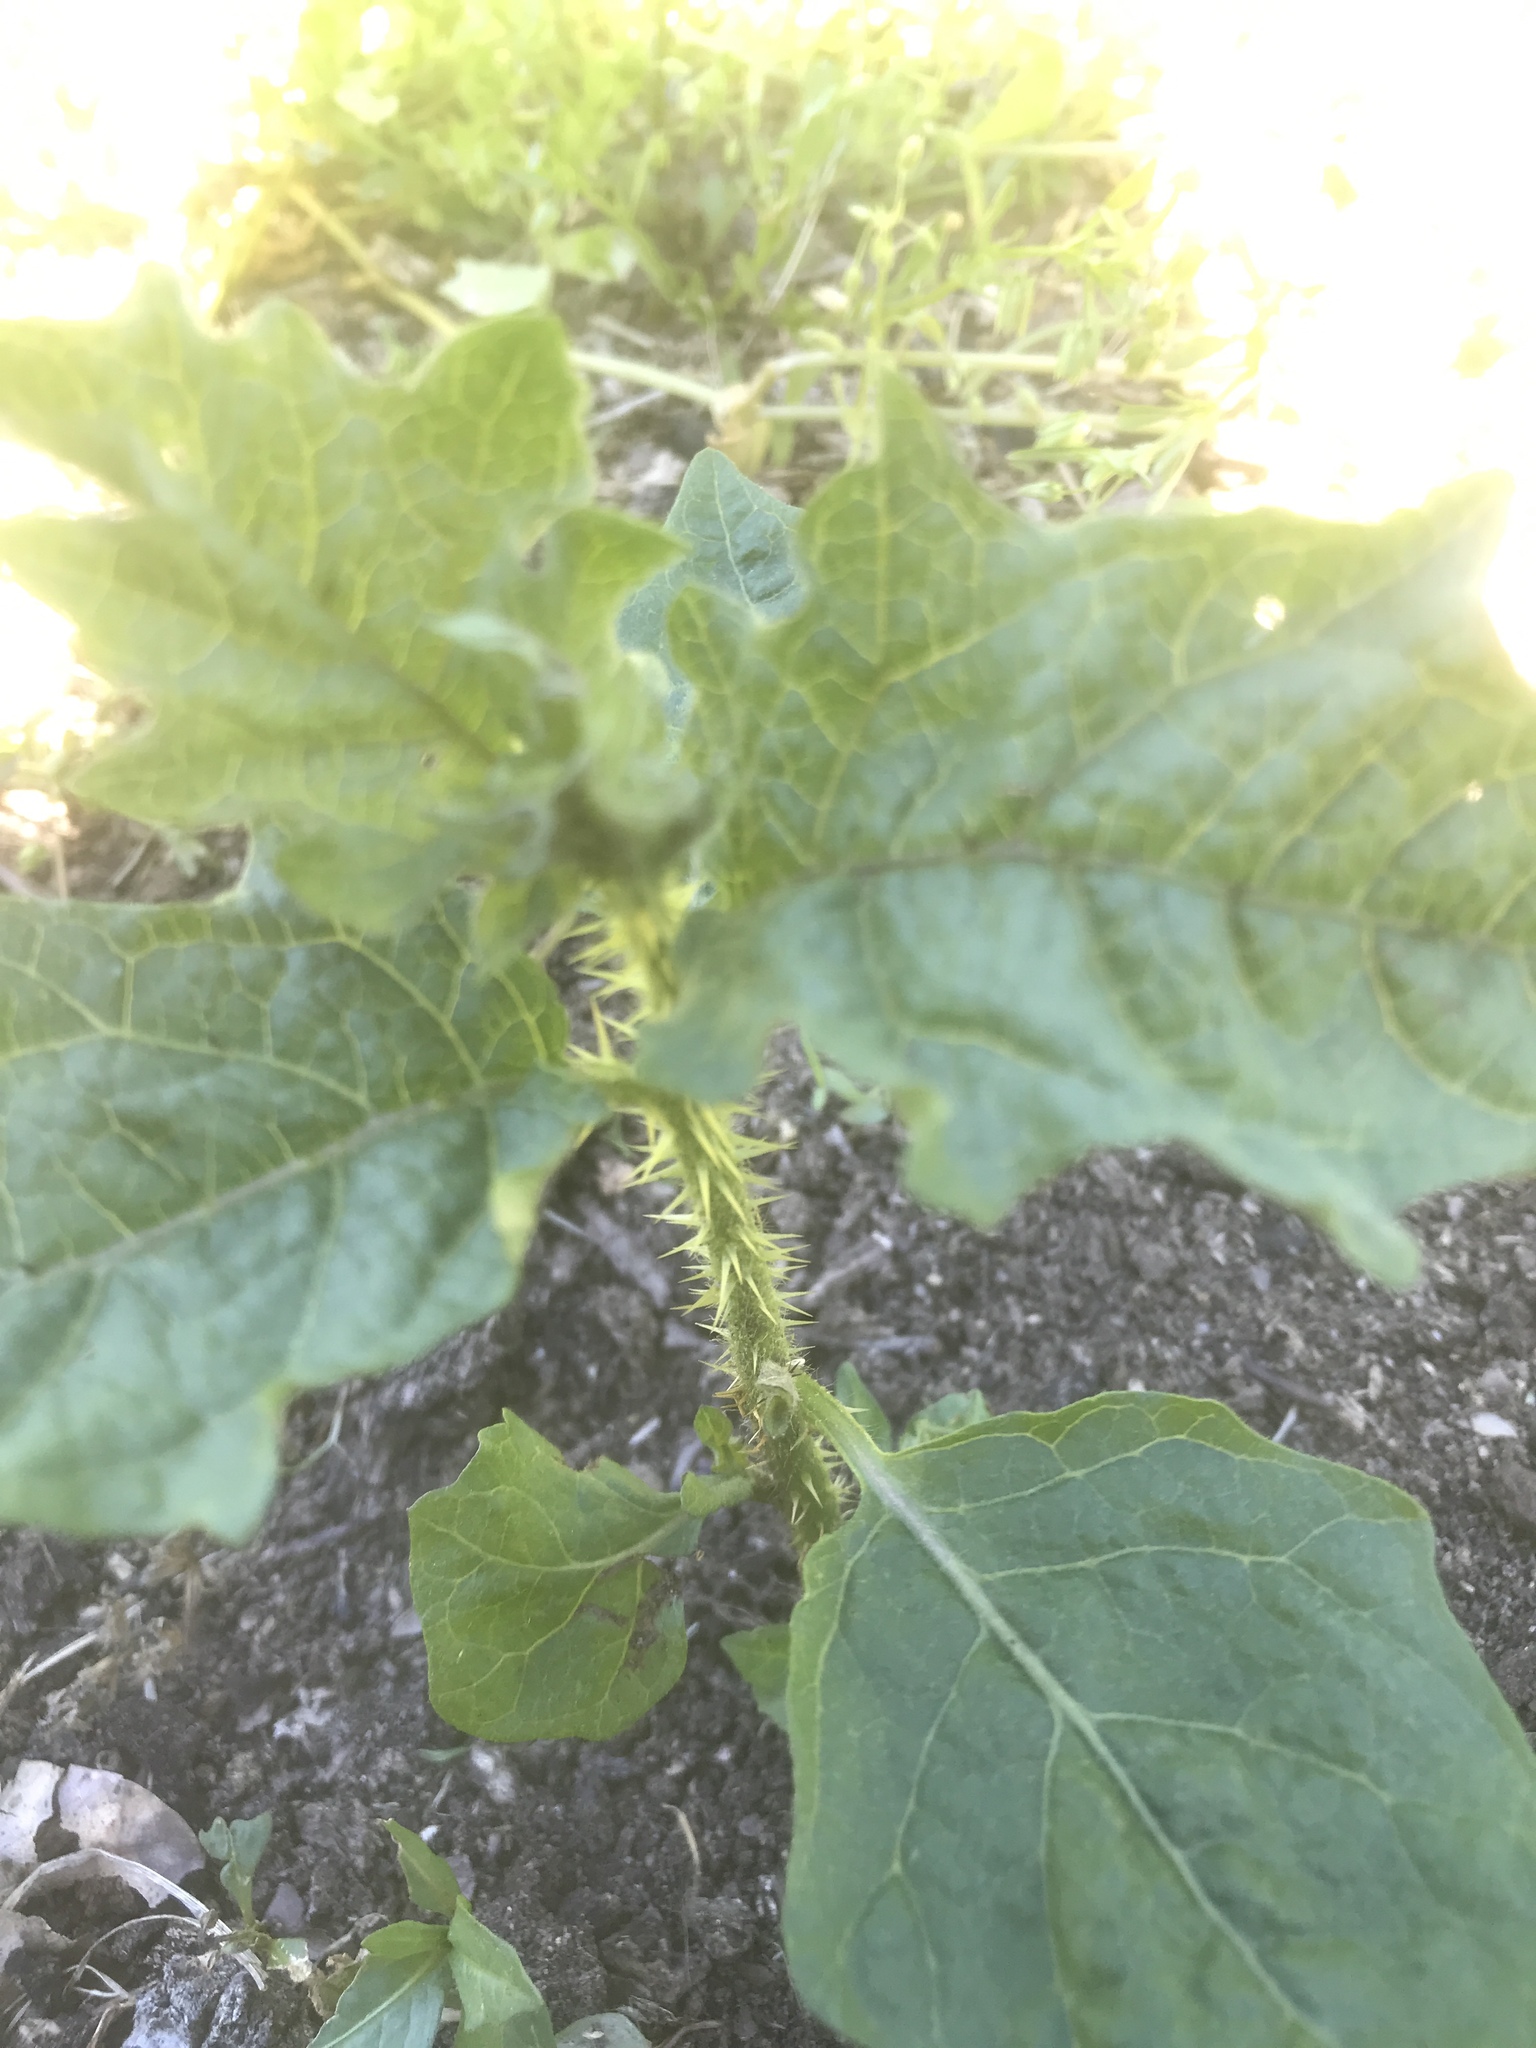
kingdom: Plantae
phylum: Tracheophyta
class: Magnoliopsida
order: Solanales
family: Solanaceae
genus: Solanum
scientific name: Solanum carolinense
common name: Horse-nettle
